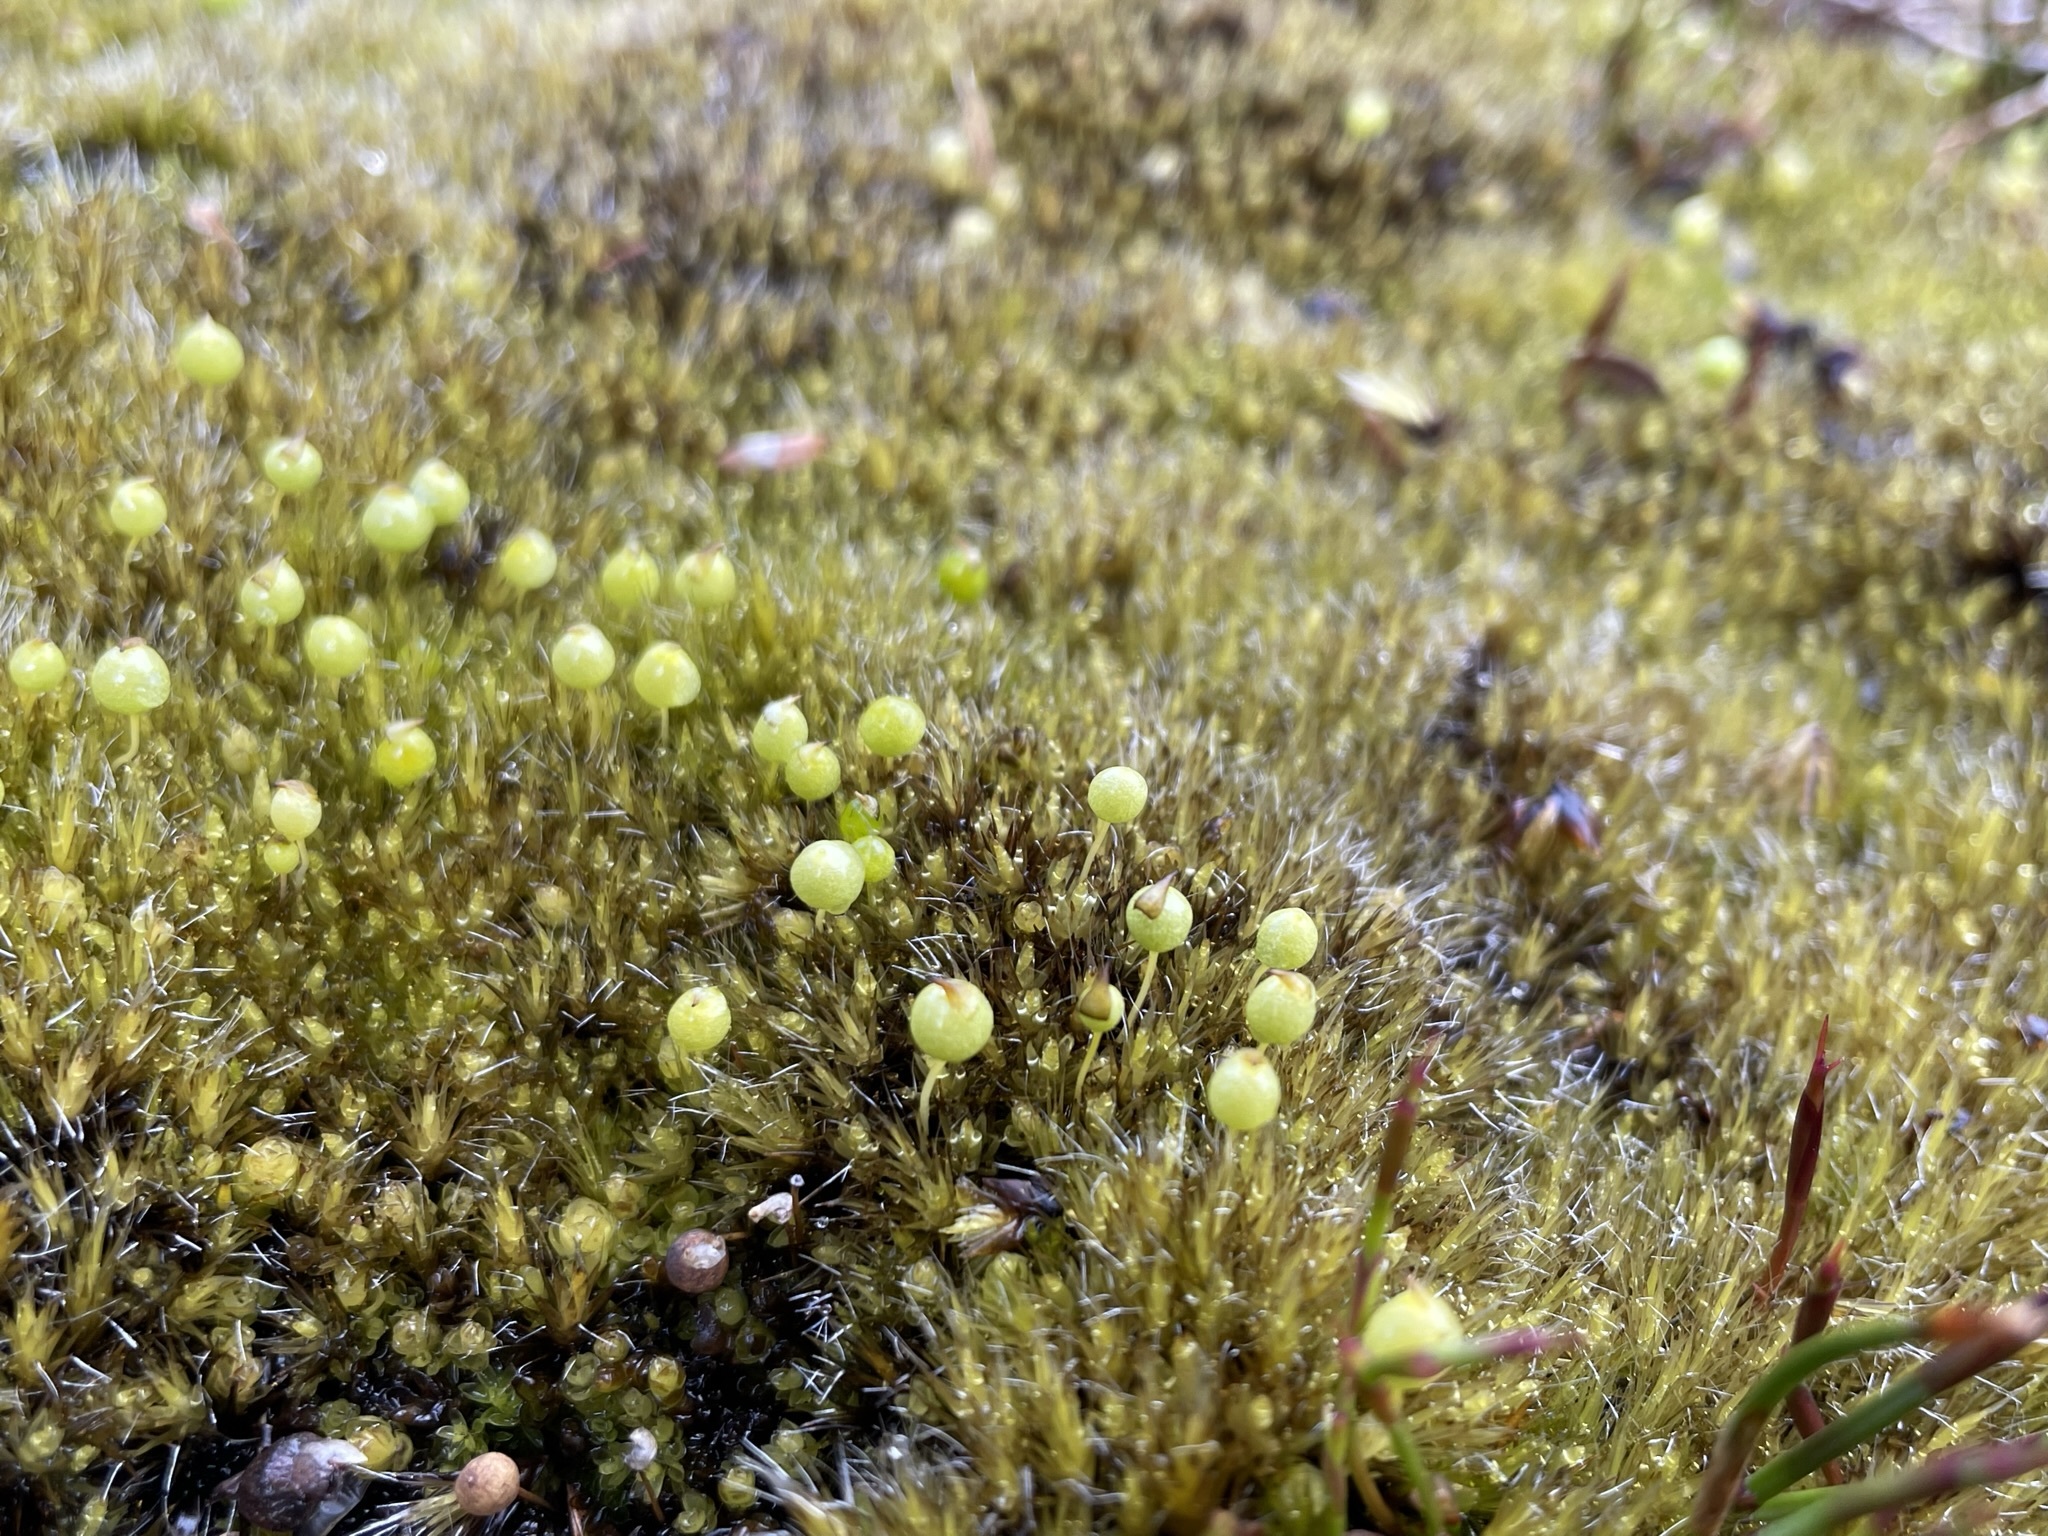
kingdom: Plantae
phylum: Bryophyta
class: Bryopsida
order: Pottiales
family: Pleurophascaceae
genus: Pleurophascum
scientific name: Pleurophascum grandiglobum
